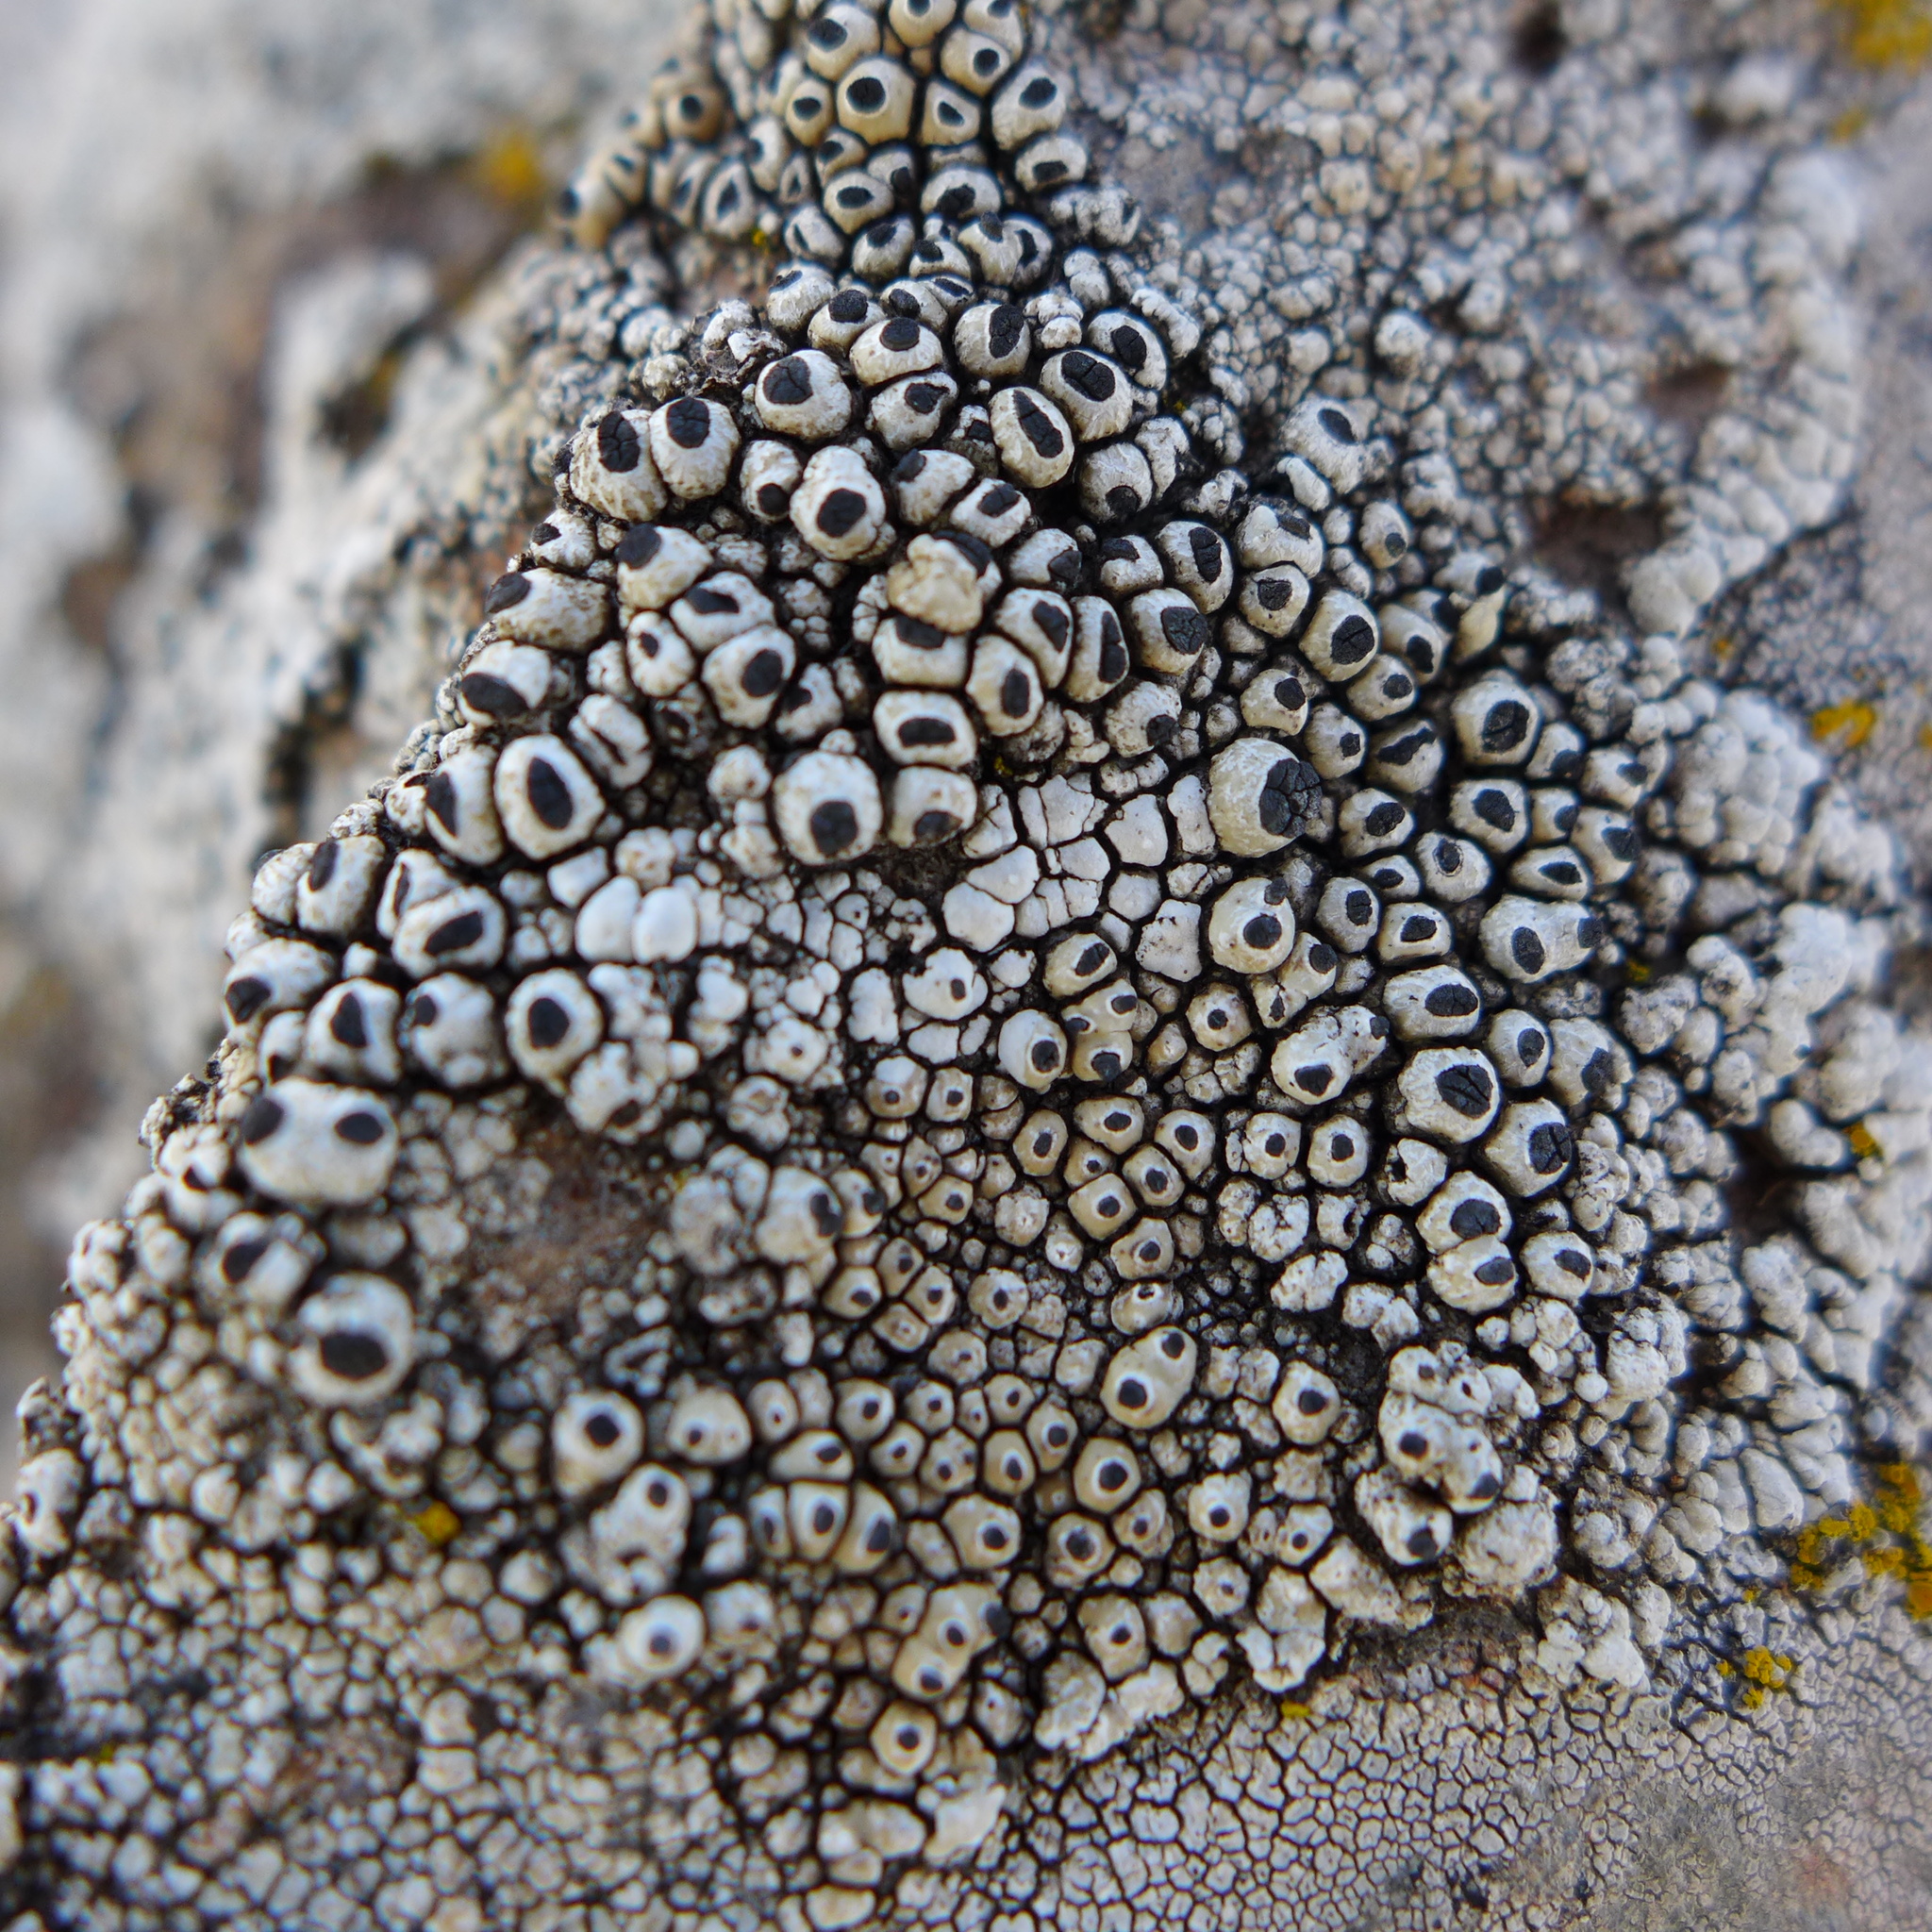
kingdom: Fungi
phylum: Ascomycota
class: Lecanoromycetes
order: Caliciales
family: Caliciaceae
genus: Thelomma
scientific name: Thelomma mammosum
